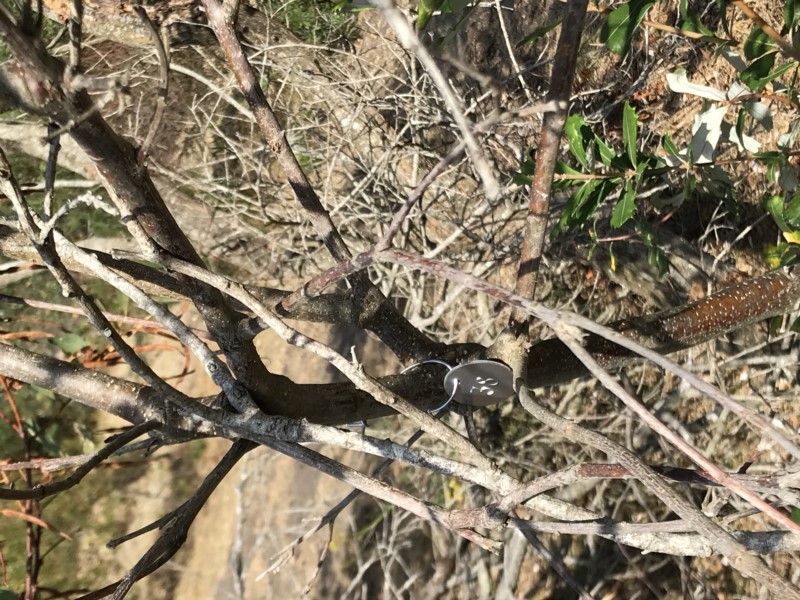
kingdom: Plantae
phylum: Tracheophyta
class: Magnoliopsida
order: Proteales
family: Proteaceae
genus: Banksia
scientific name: Banksia integrifolia
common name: White-honeysuckle
